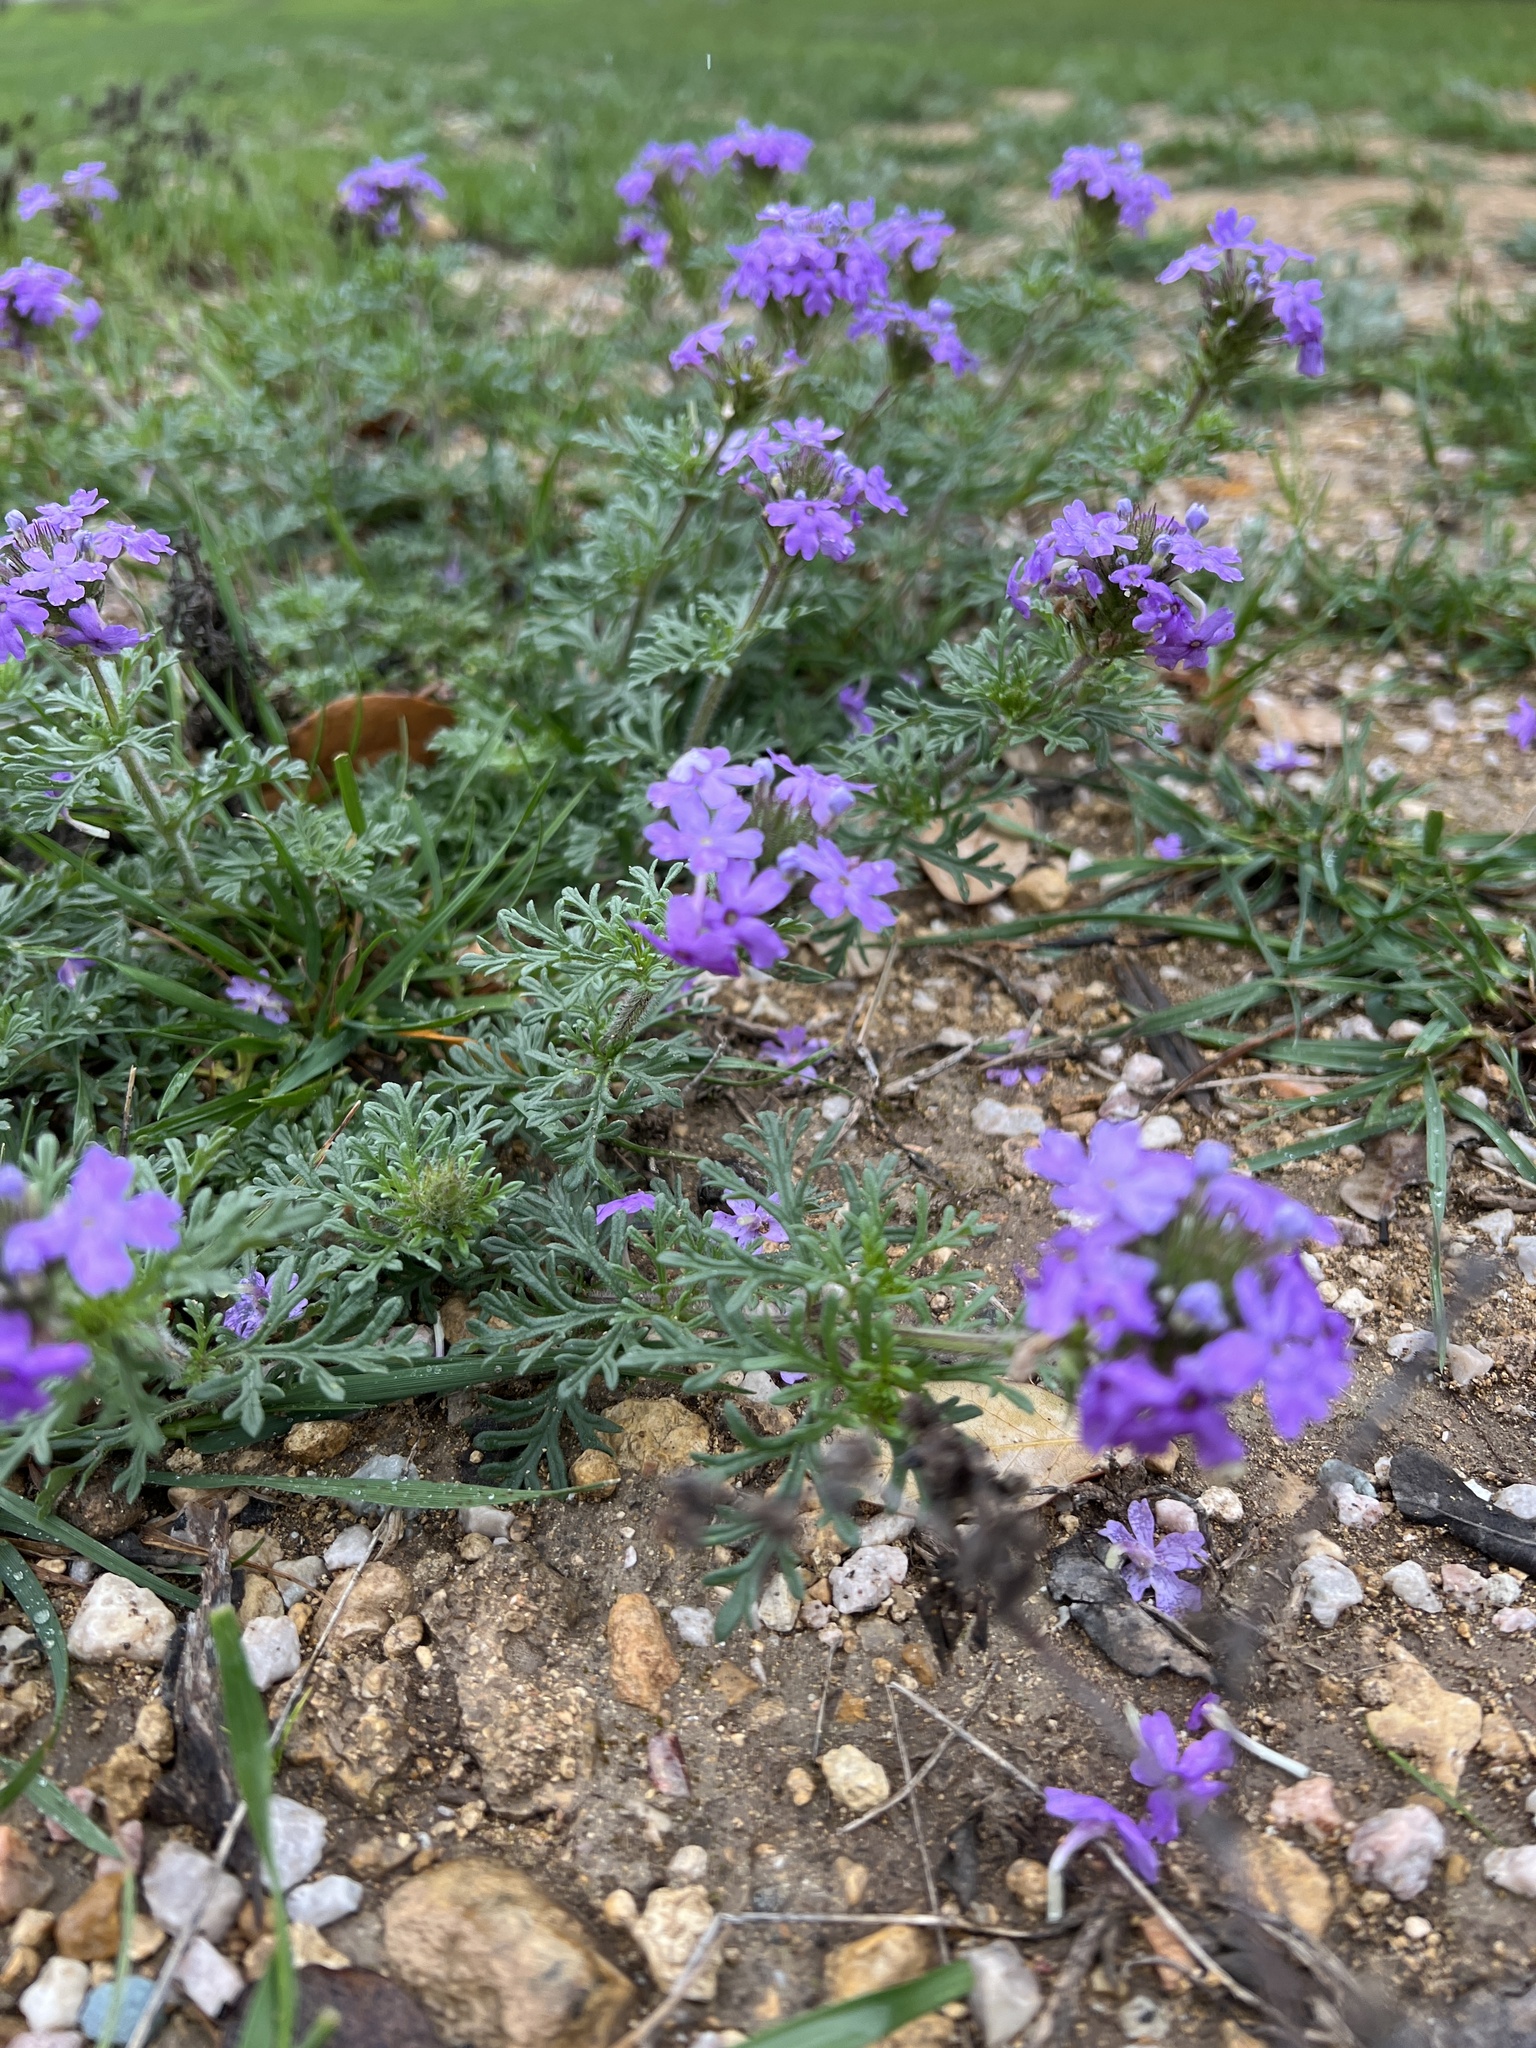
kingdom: Plantae
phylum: Tracheophyta
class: Magnoliopsida
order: Lamiales
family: Verbenaceae
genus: Verbena
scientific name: Verbena bipinnatifida
